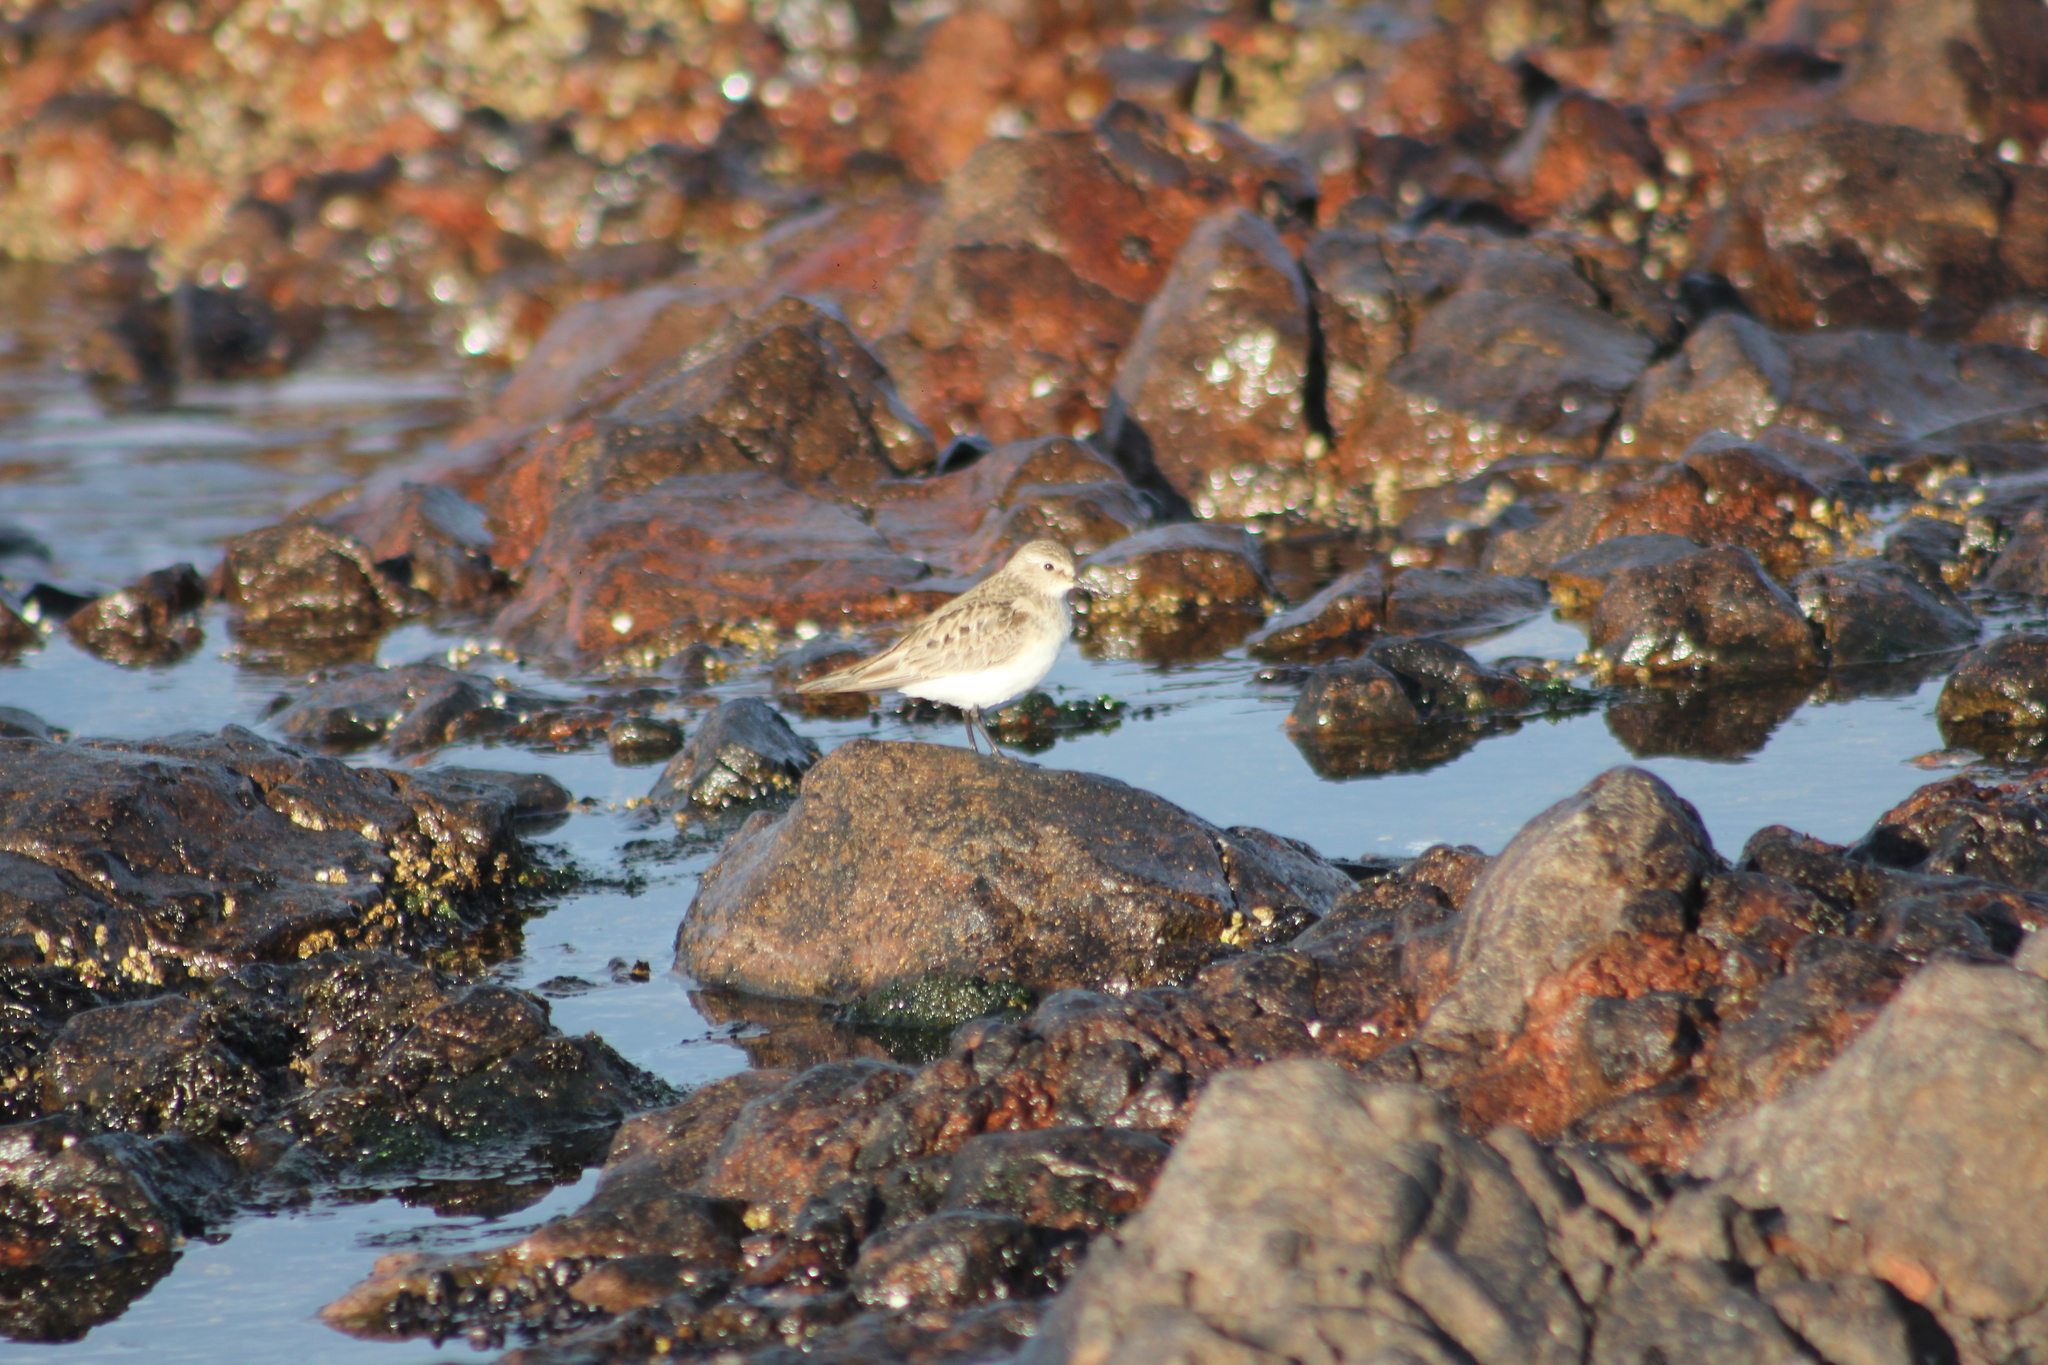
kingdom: Animalia
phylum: Chordata
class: Aves
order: Charadriiformes
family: Scolopacidae
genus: Calidris
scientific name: Calidris fuscicollis
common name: White-rumped sandpiper
